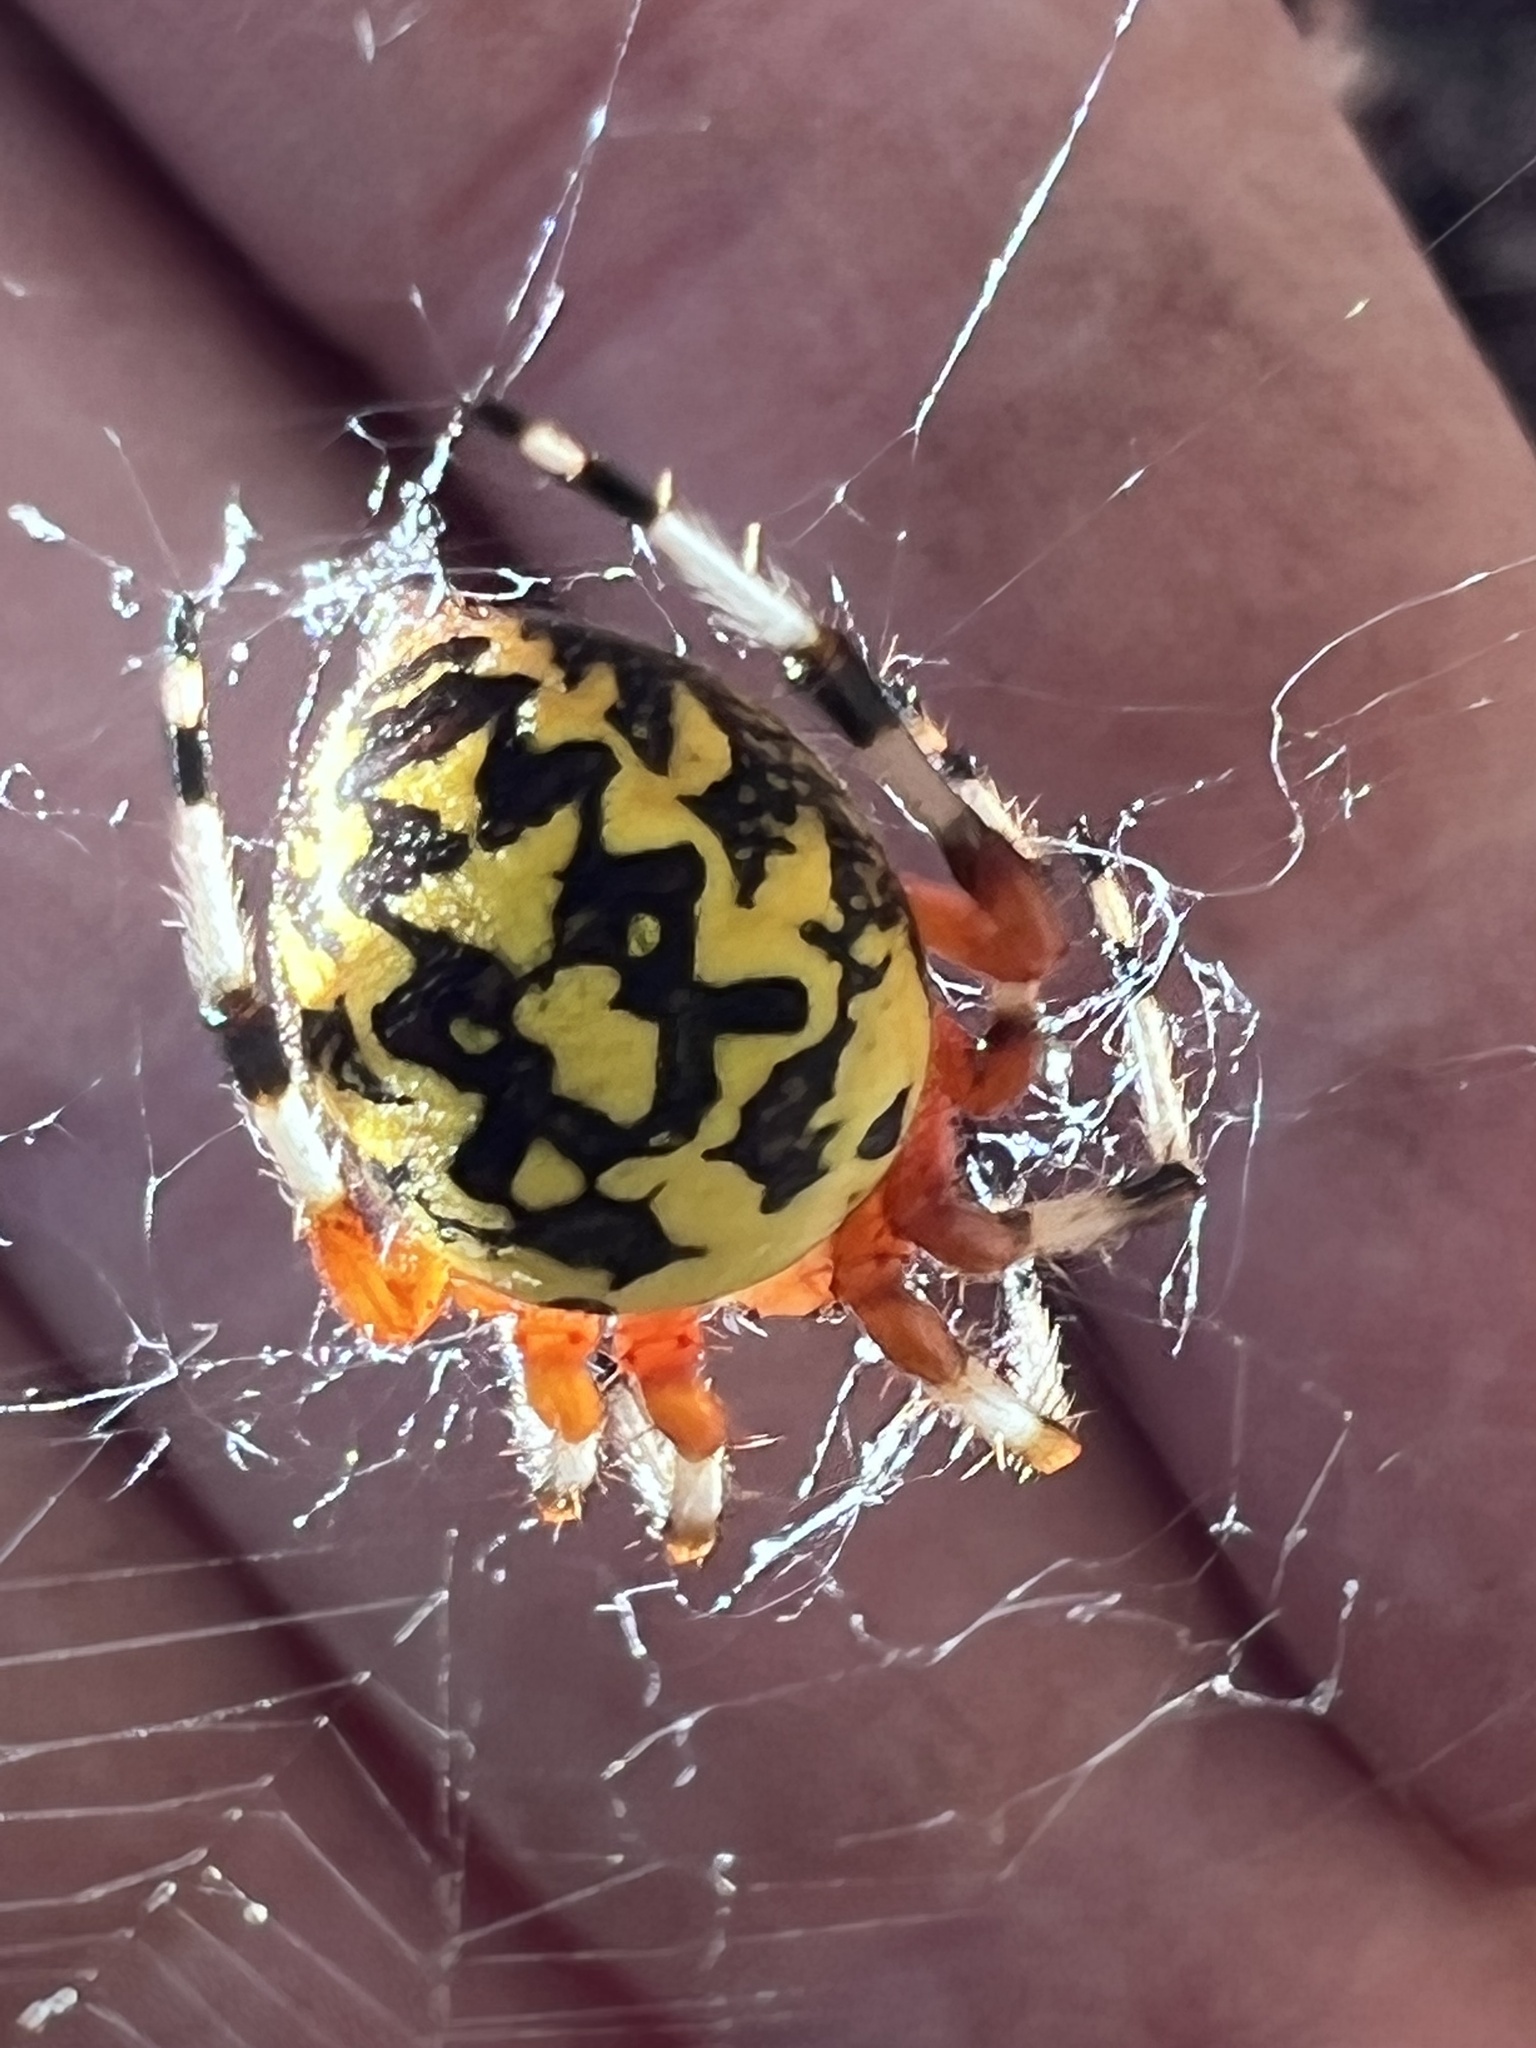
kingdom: Animalia
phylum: Arthropoda
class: Arachnida
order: Araneae
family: Araneidae
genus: Araneus
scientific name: Araneus marmoreus
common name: Marbled orbweaver
